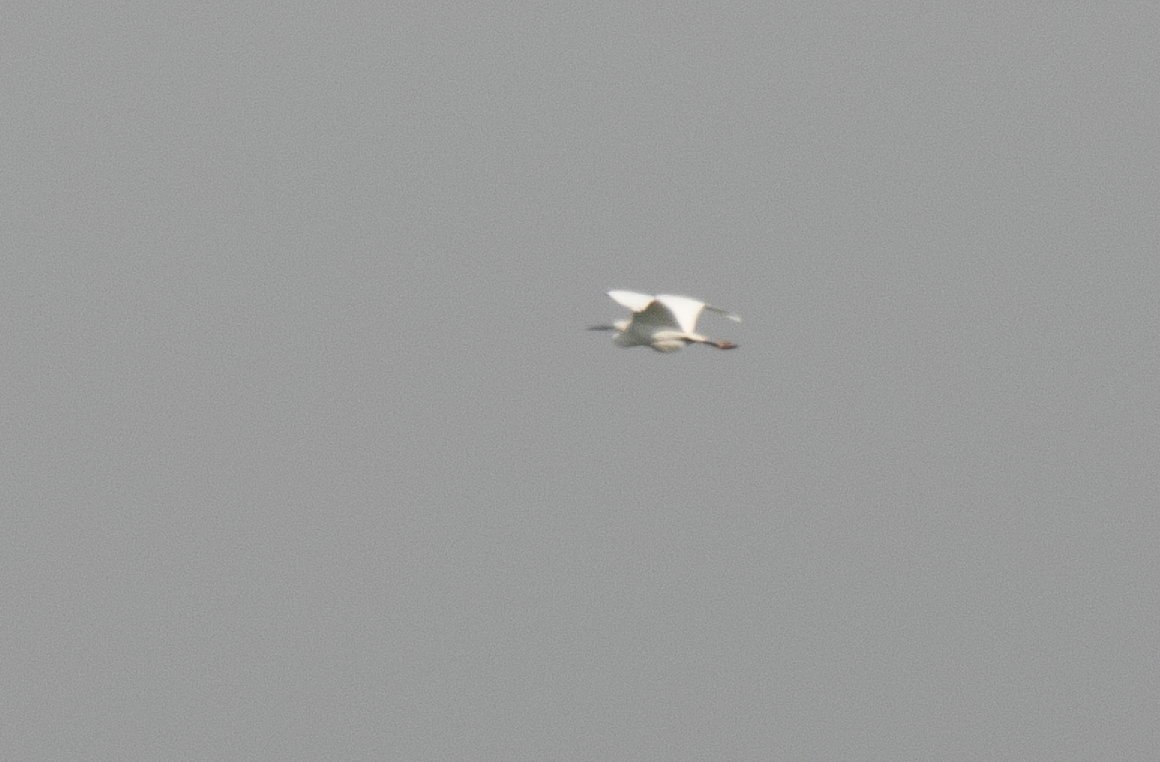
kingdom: Animalia
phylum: Chordata
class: Aves
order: Pelecaniformes
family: Ardeidae
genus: Egretta
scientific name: Egretta garzetta
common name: Little egret
